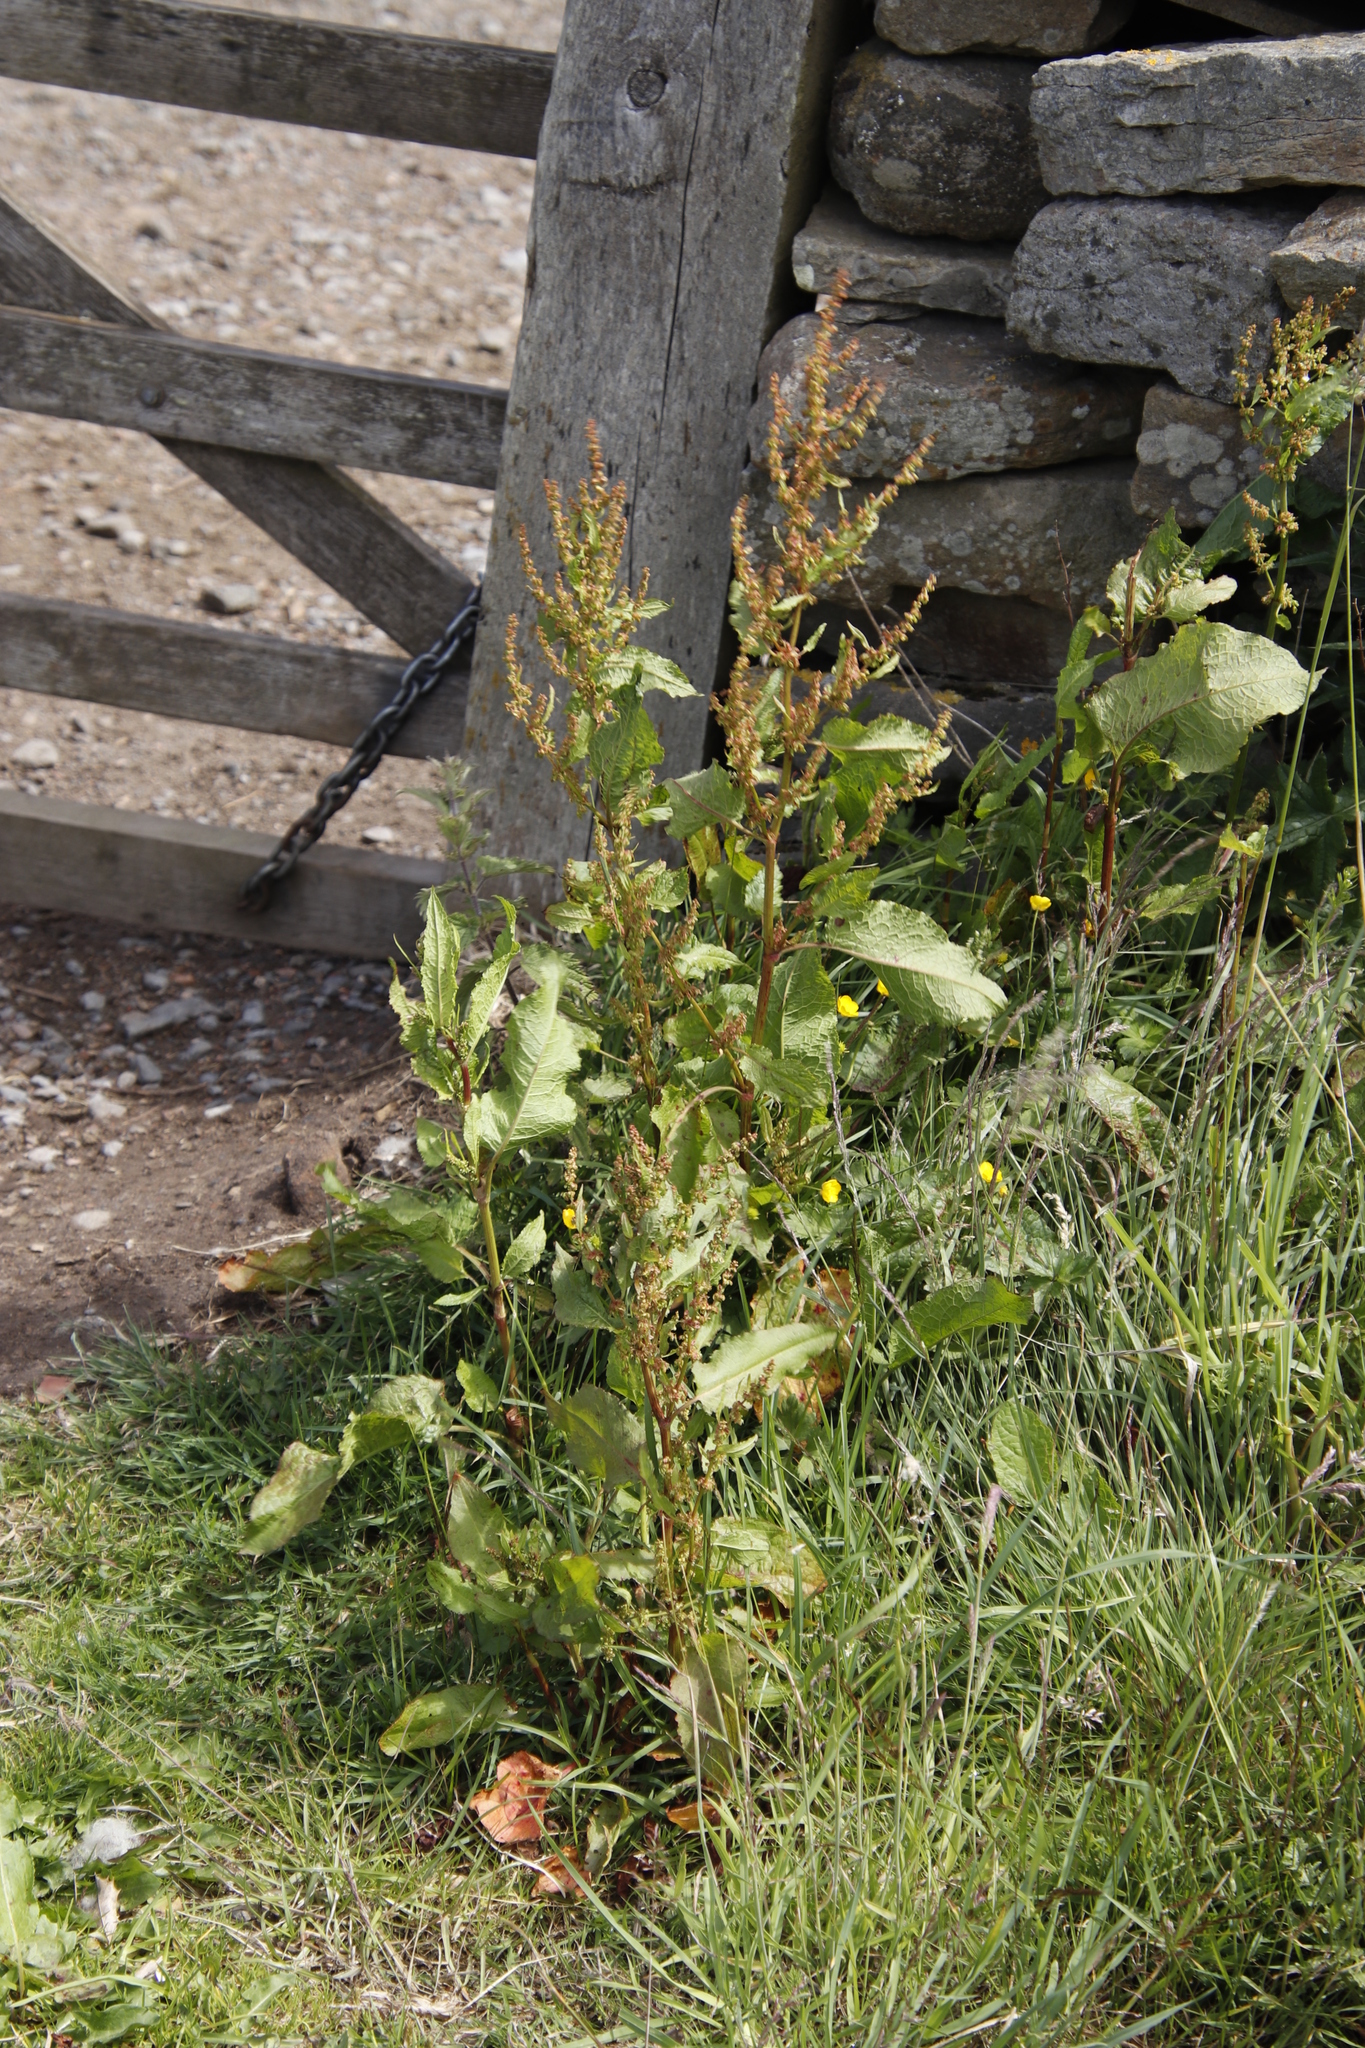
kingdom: Plantae
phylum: Tracheophyta
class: Magnoliopsida
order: Caryophyllales
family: Polygonaceae
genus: Rumex
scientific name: Rumex obtusifolius
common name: Bitter dock
